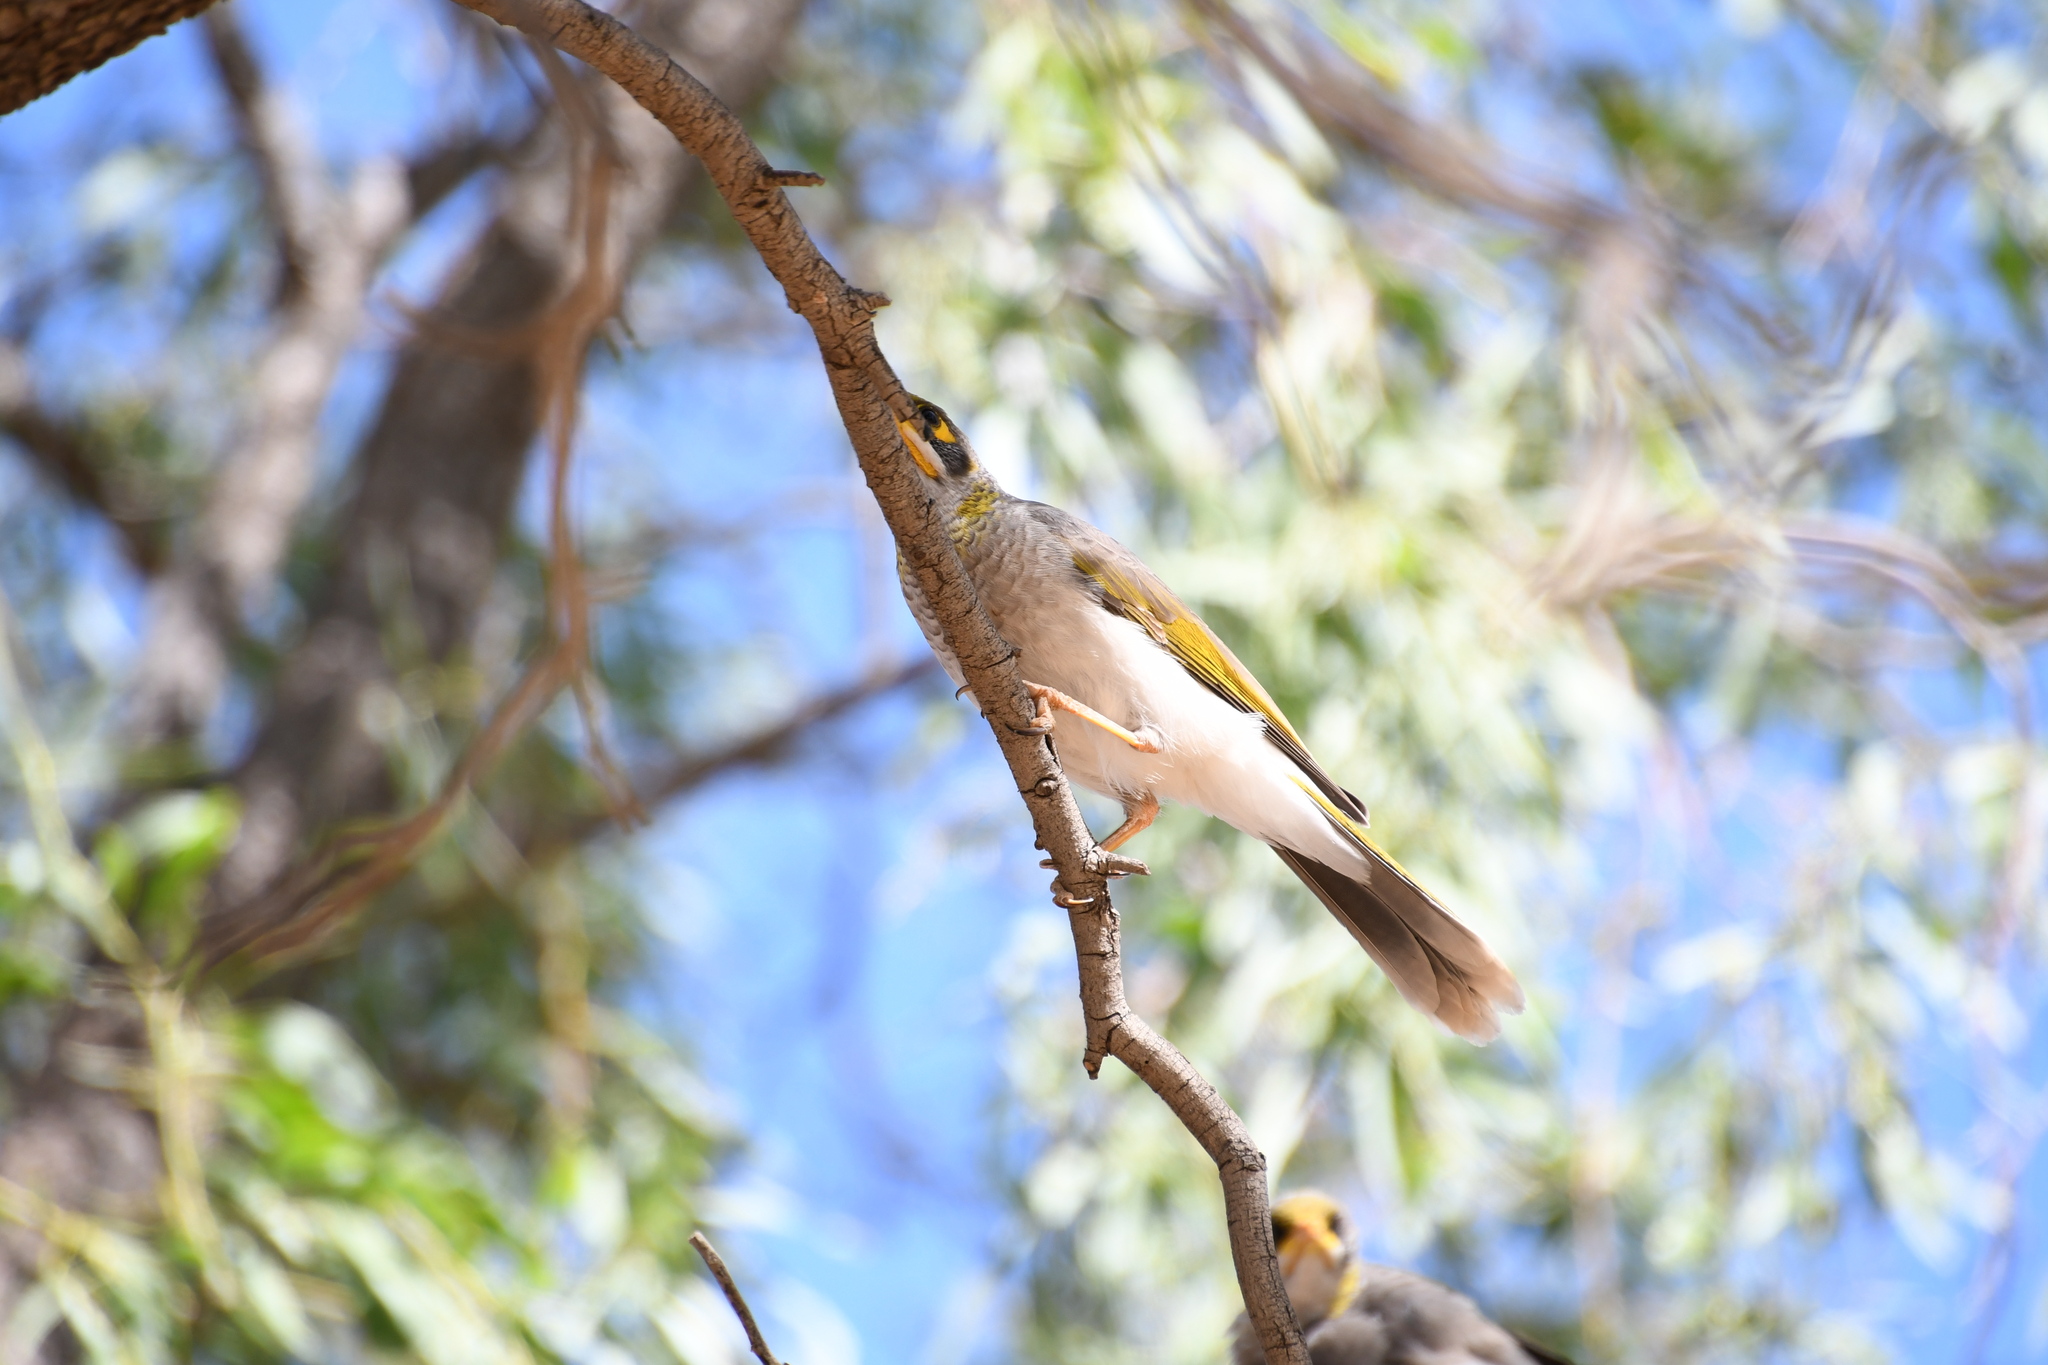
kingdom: Animalia
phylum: Chordata
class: Aves
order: Passeriformes
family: Meliphagidae
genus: Manorina
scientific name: Manorina flavigula
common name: Yellow-throated miner
